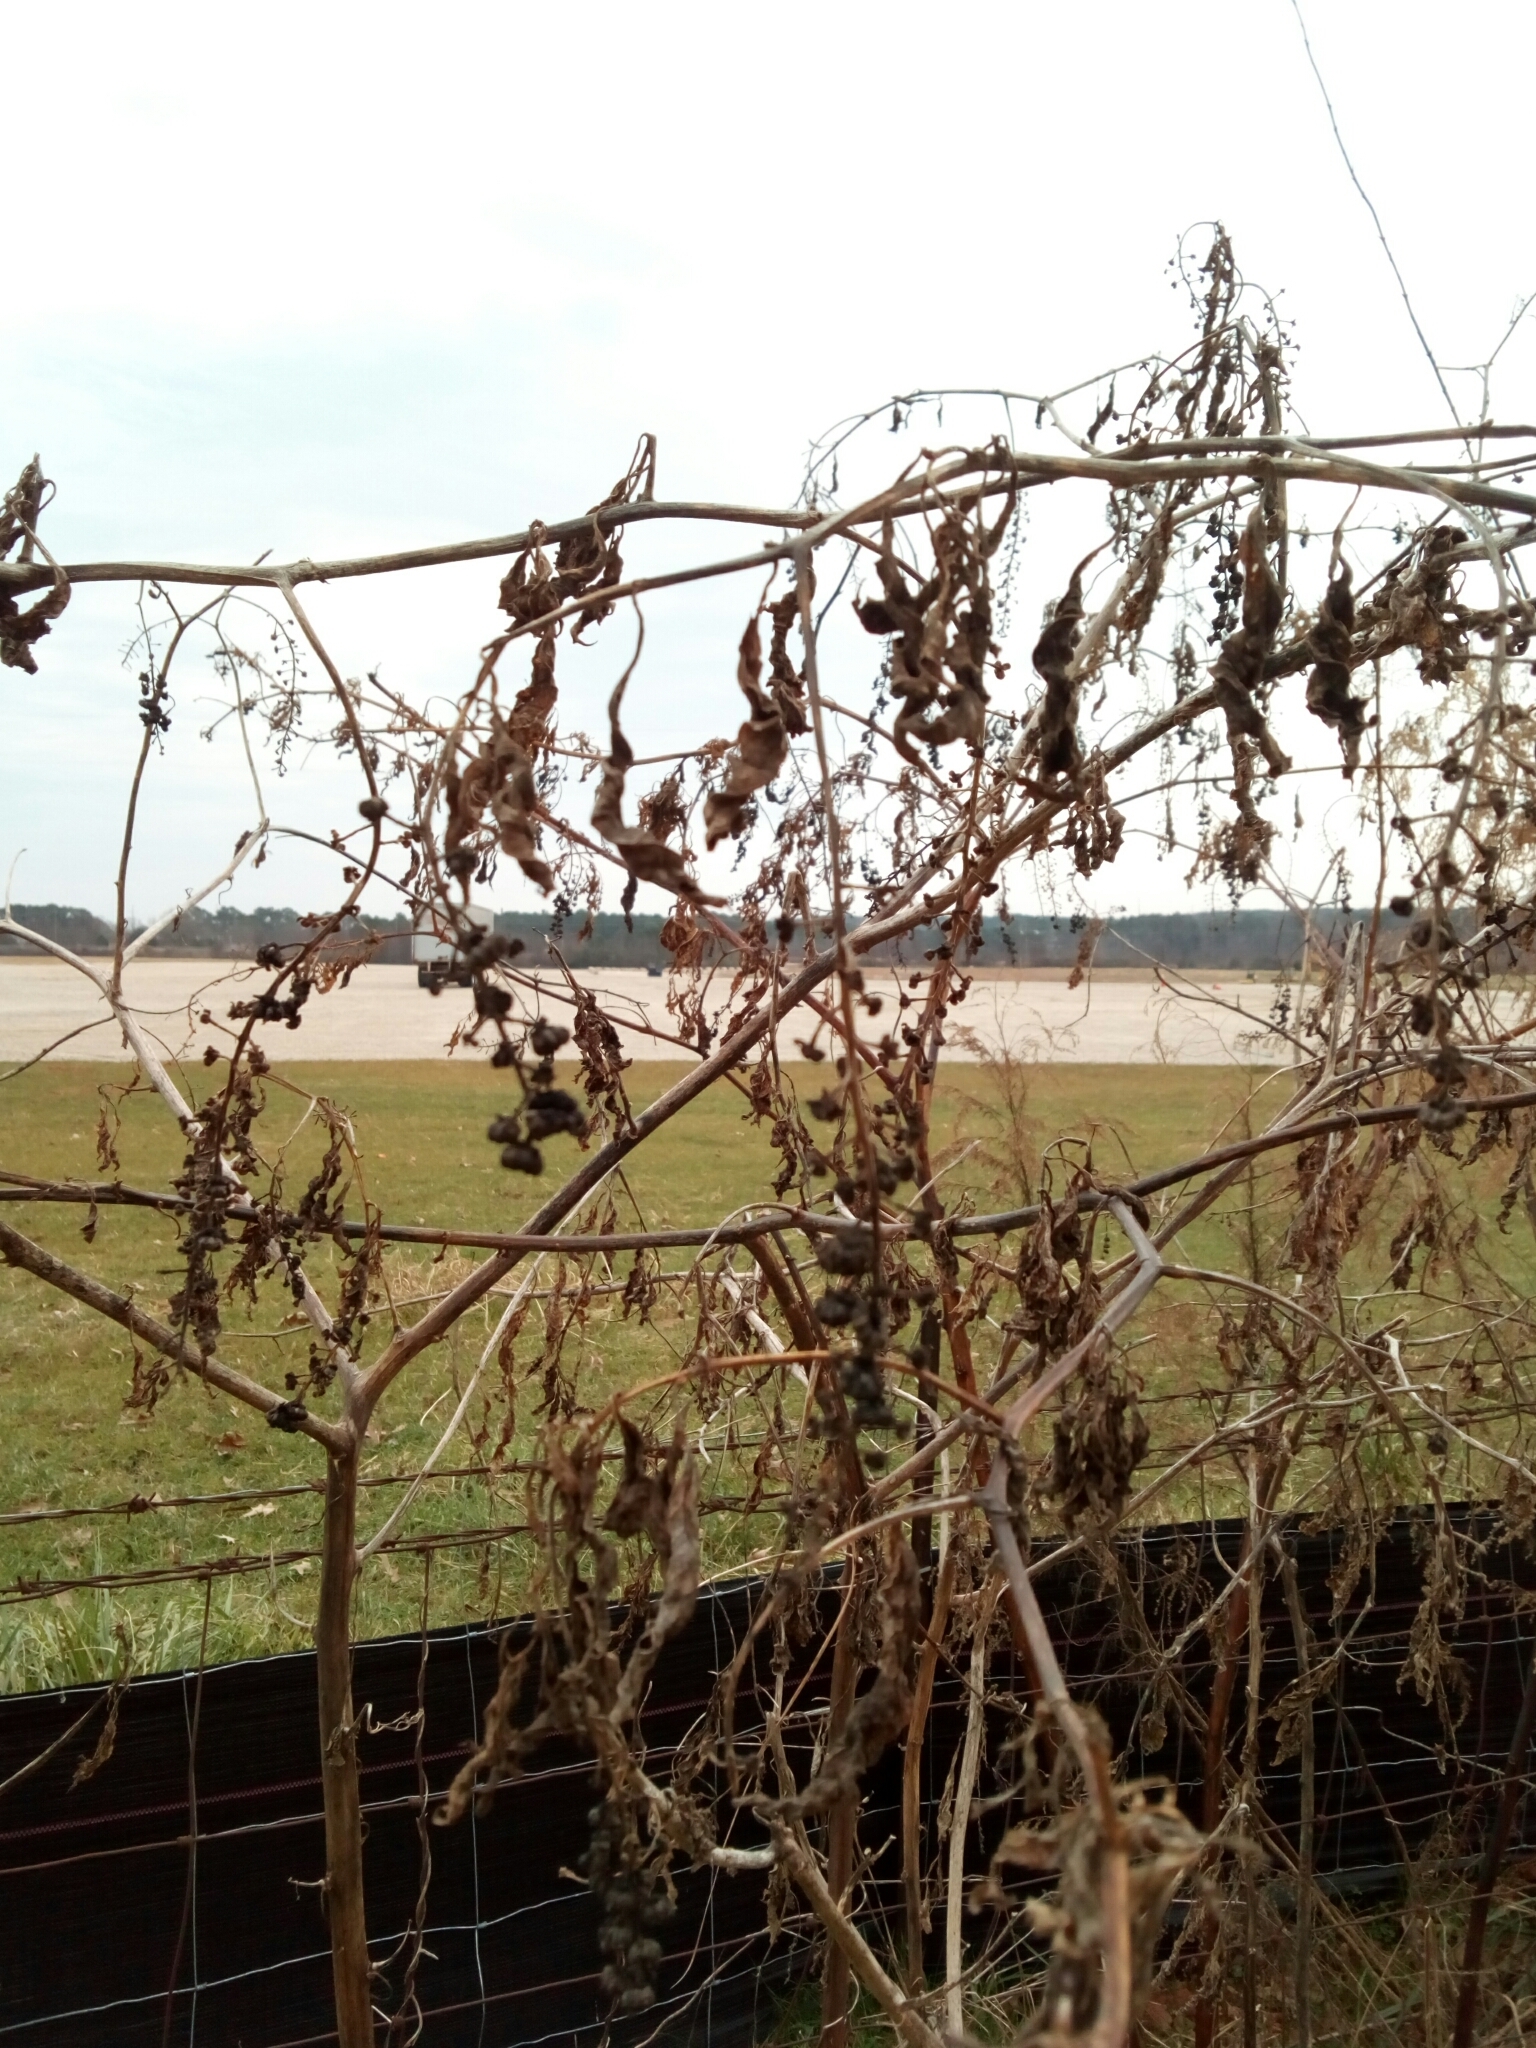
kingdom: Plantae
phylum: Tracheophyta
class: Magnoliopsida
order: Caryophyllales
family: Phytolaccaceae
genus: Phytolacca
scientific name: Phytolacca americana
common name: American pokeweed
